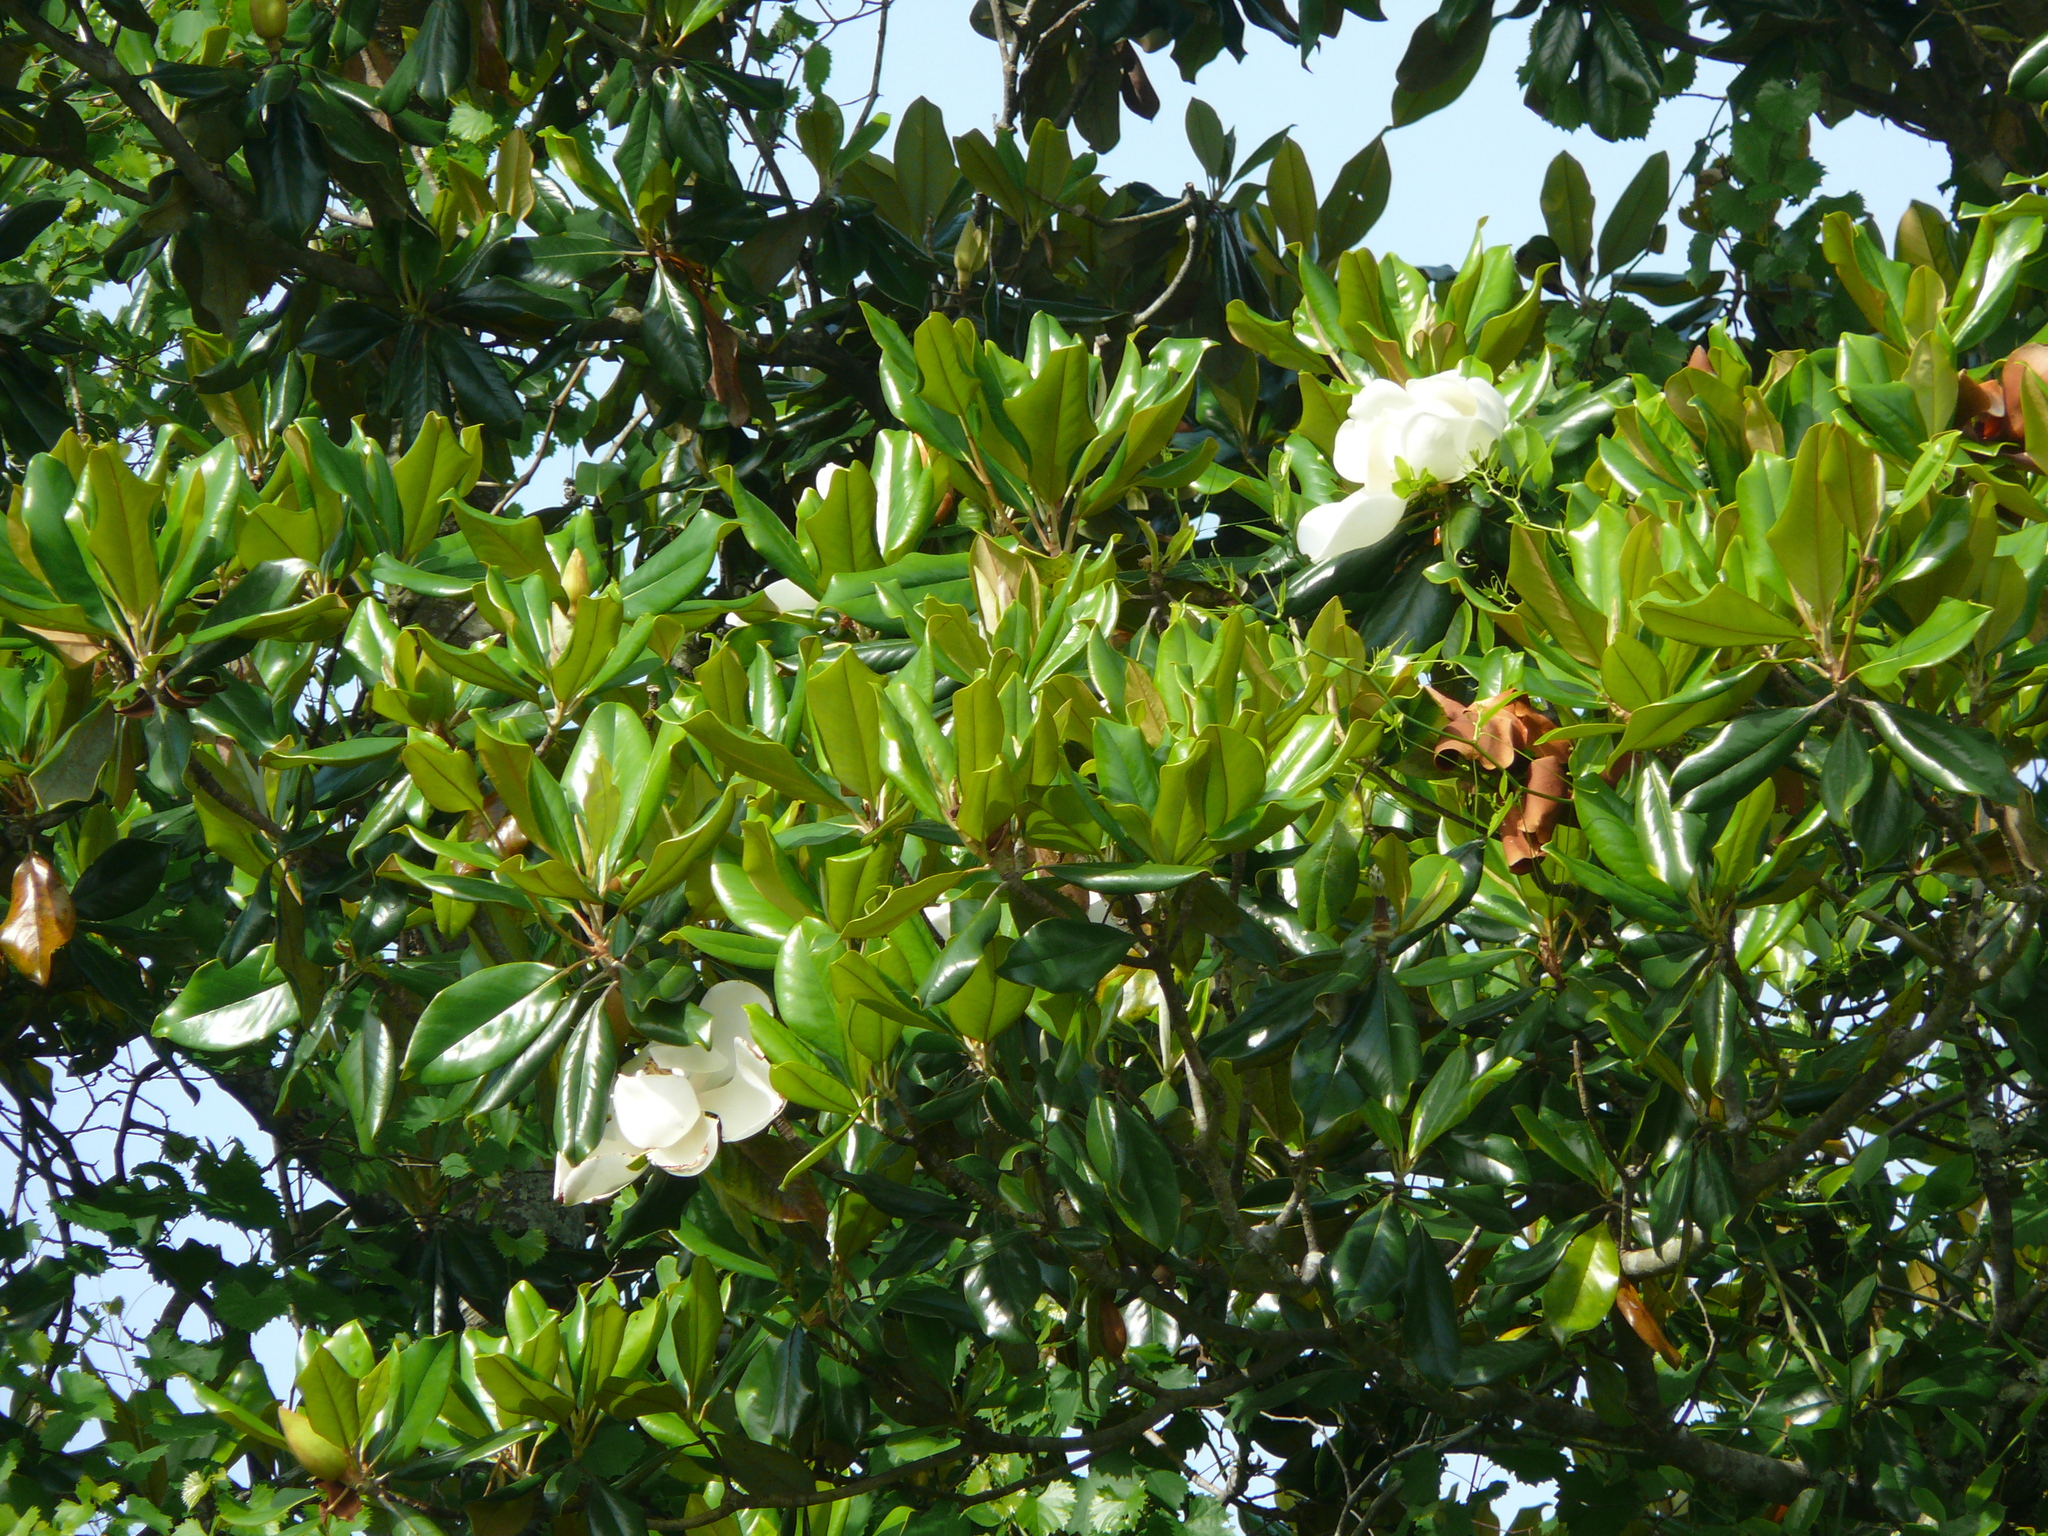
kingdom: Plantae
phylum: Tracheophyta
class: Magnoliopsida
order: Magnoliales
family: Magnoliaceae
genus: Magnolia
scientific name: Magnolia grandiflora
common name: Southern magnolia
